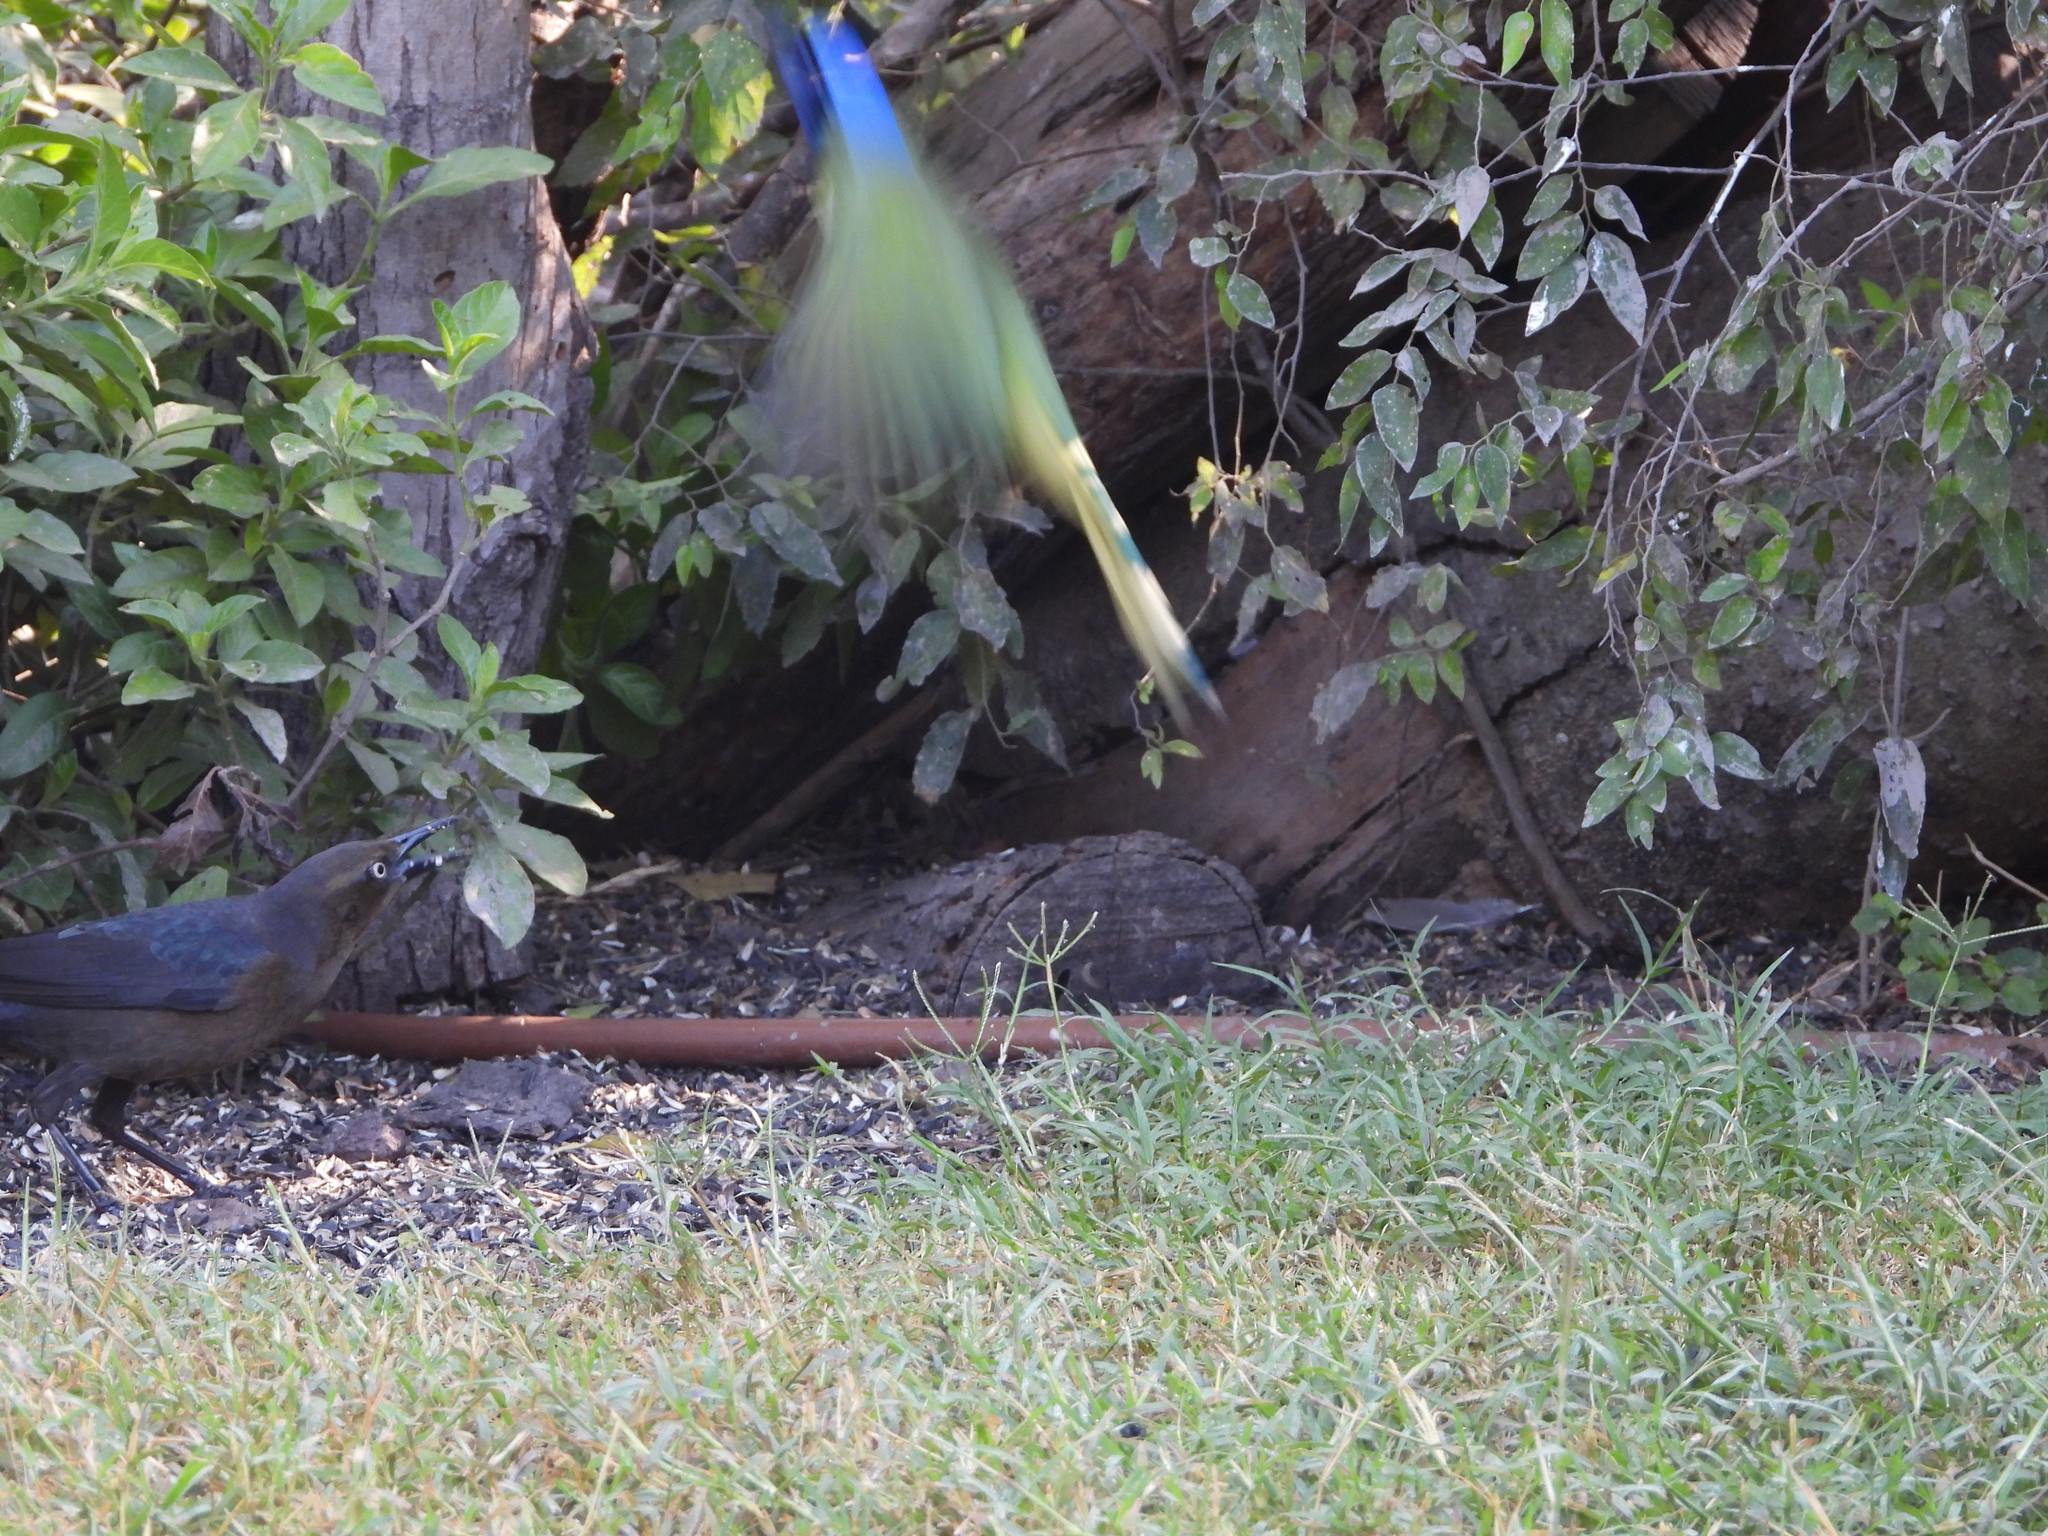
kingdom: Animalia
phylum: Chordata
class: Aves
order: Passeriformes
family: Corvidae
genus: Cyanocorax
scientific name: Cyanocorax yncas
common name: Green jay
